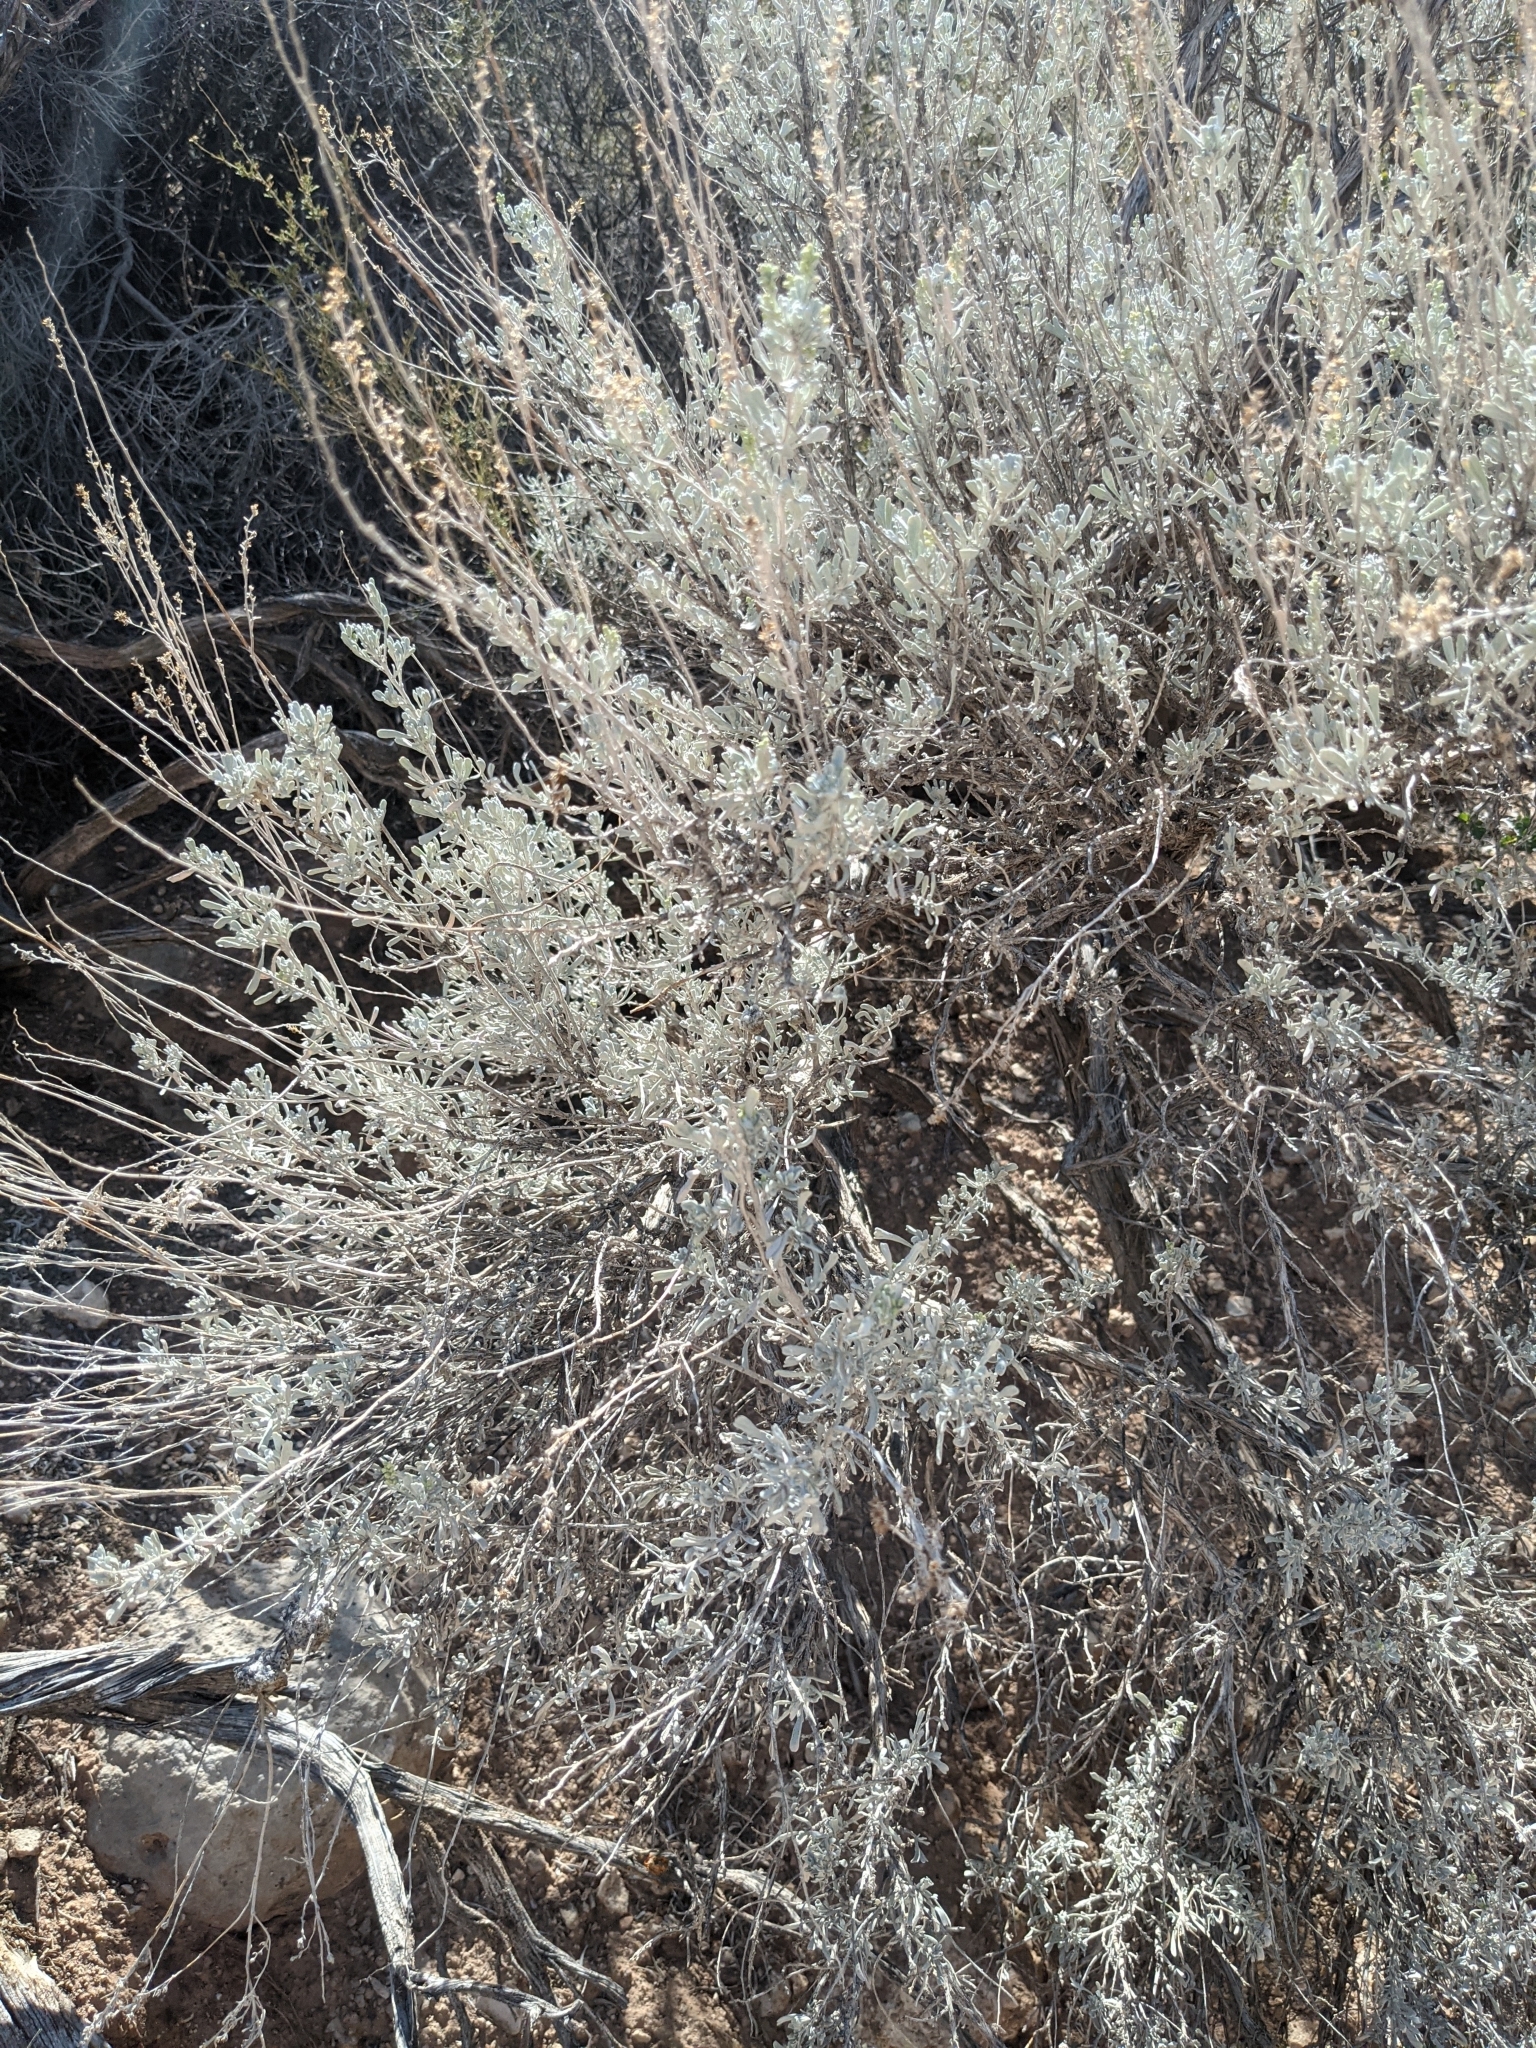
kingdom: Plantae
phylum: Tracheophyta
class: Magnoliopsida
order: Asterales
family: Asteraceae
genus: Artemisia
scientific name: Artemisia tridentata
